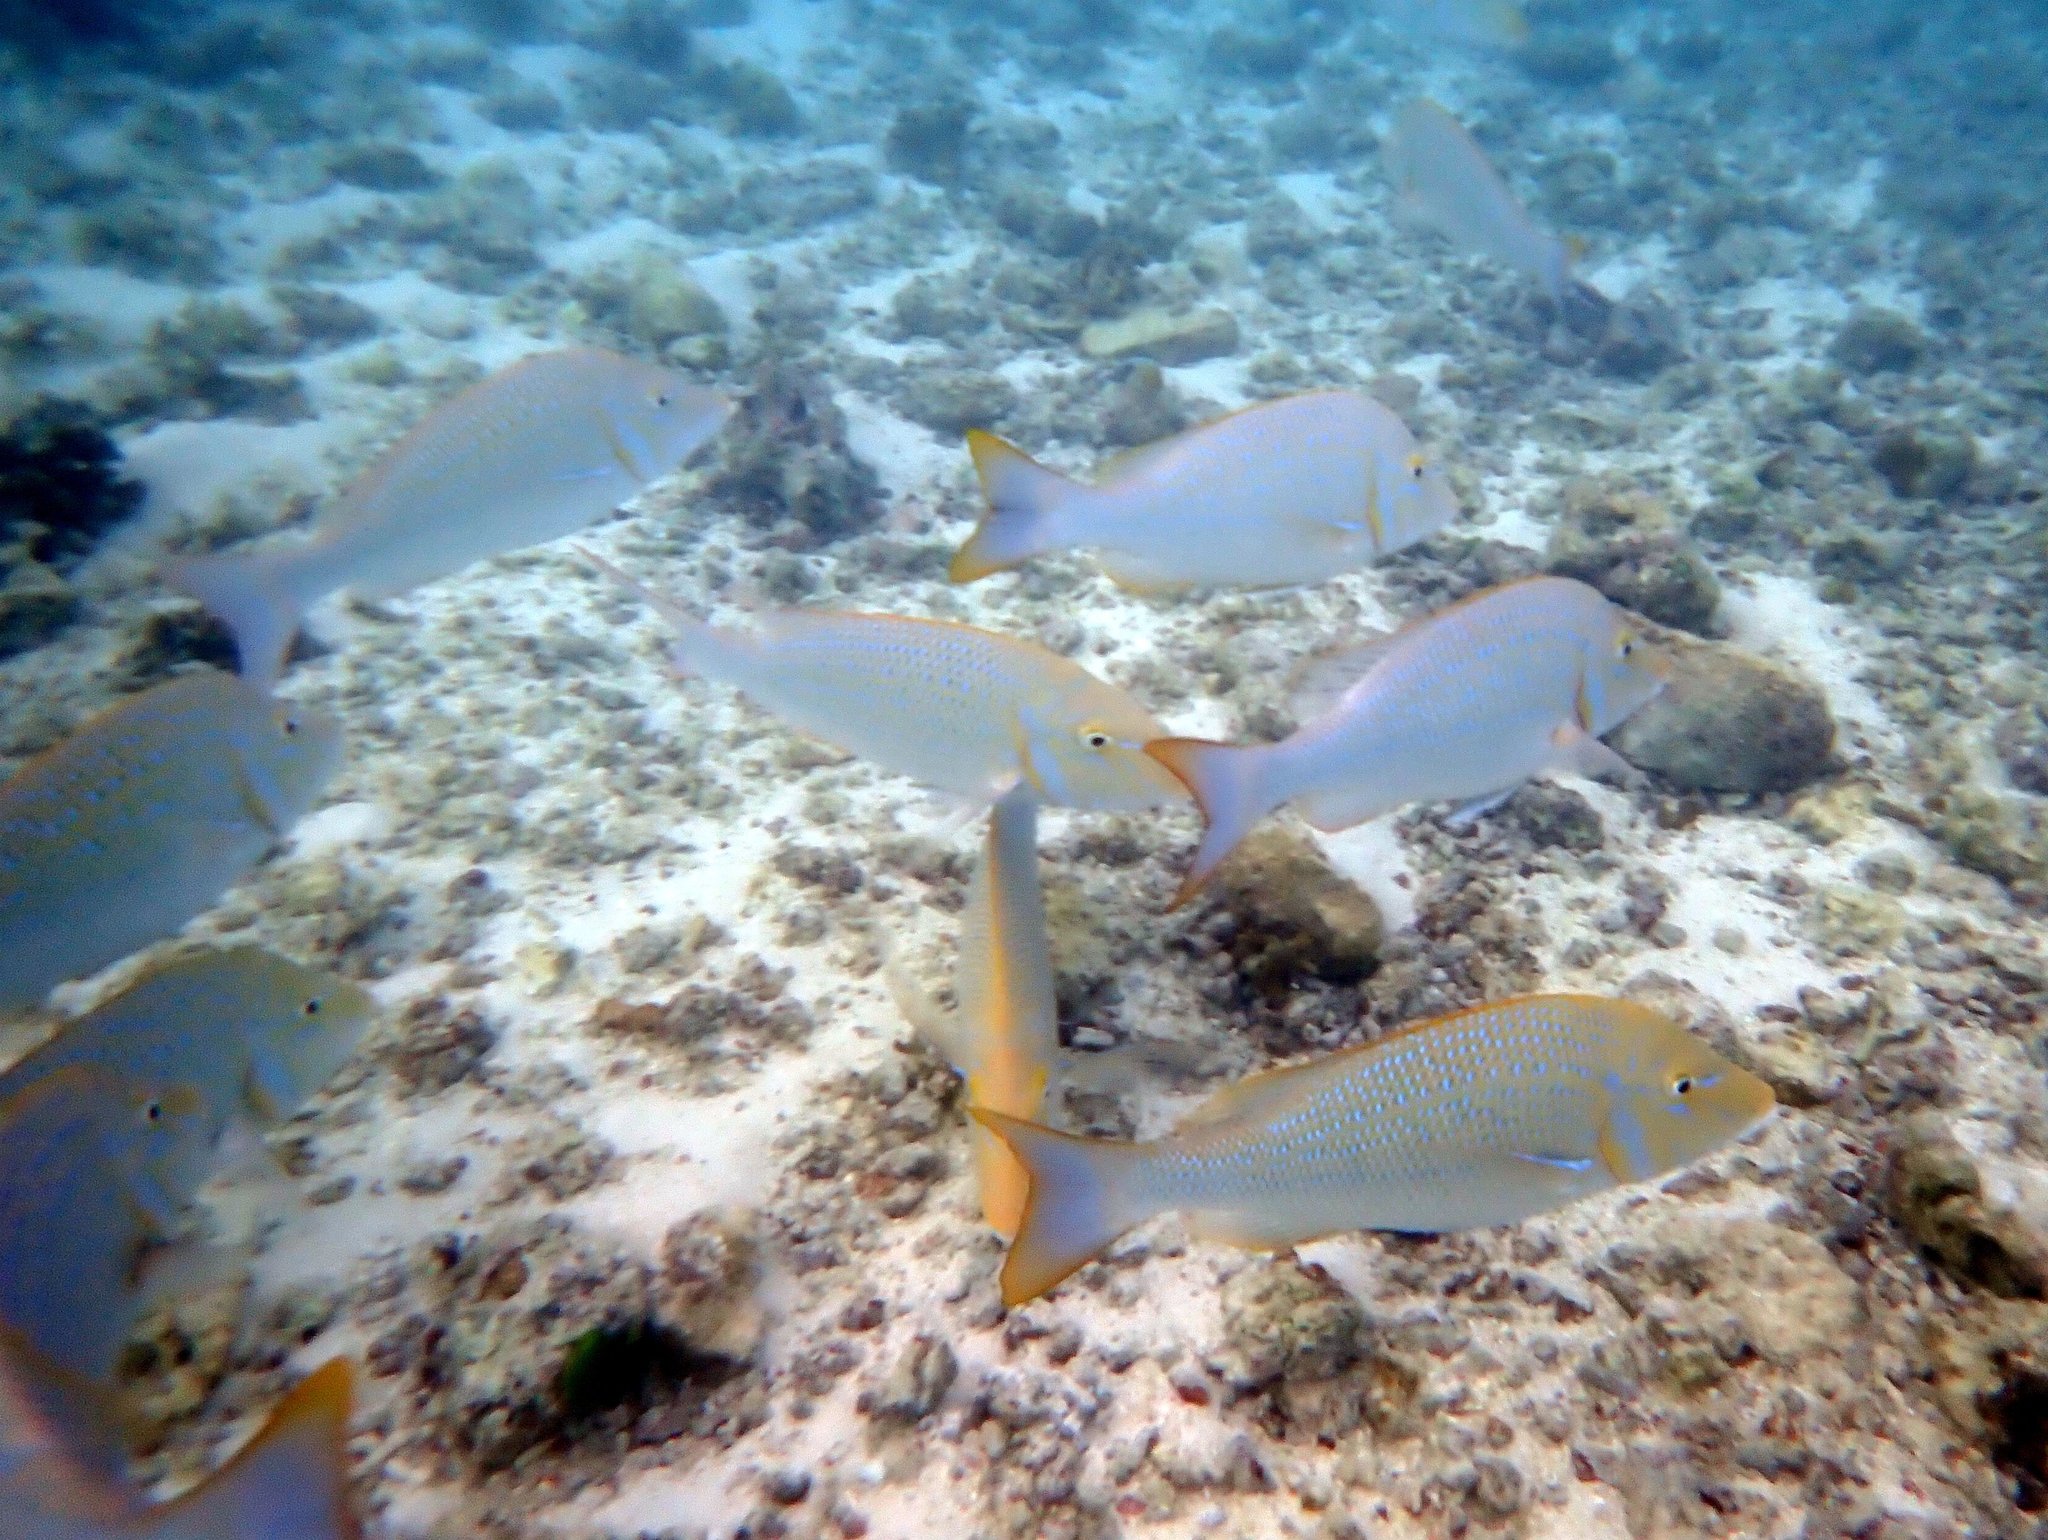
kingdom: Animalia
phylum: Chordata
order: Perciformes
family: Lethrinidae
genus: Lethrinus
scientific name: Lethrinus nebulosus
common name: Spangled emperor
